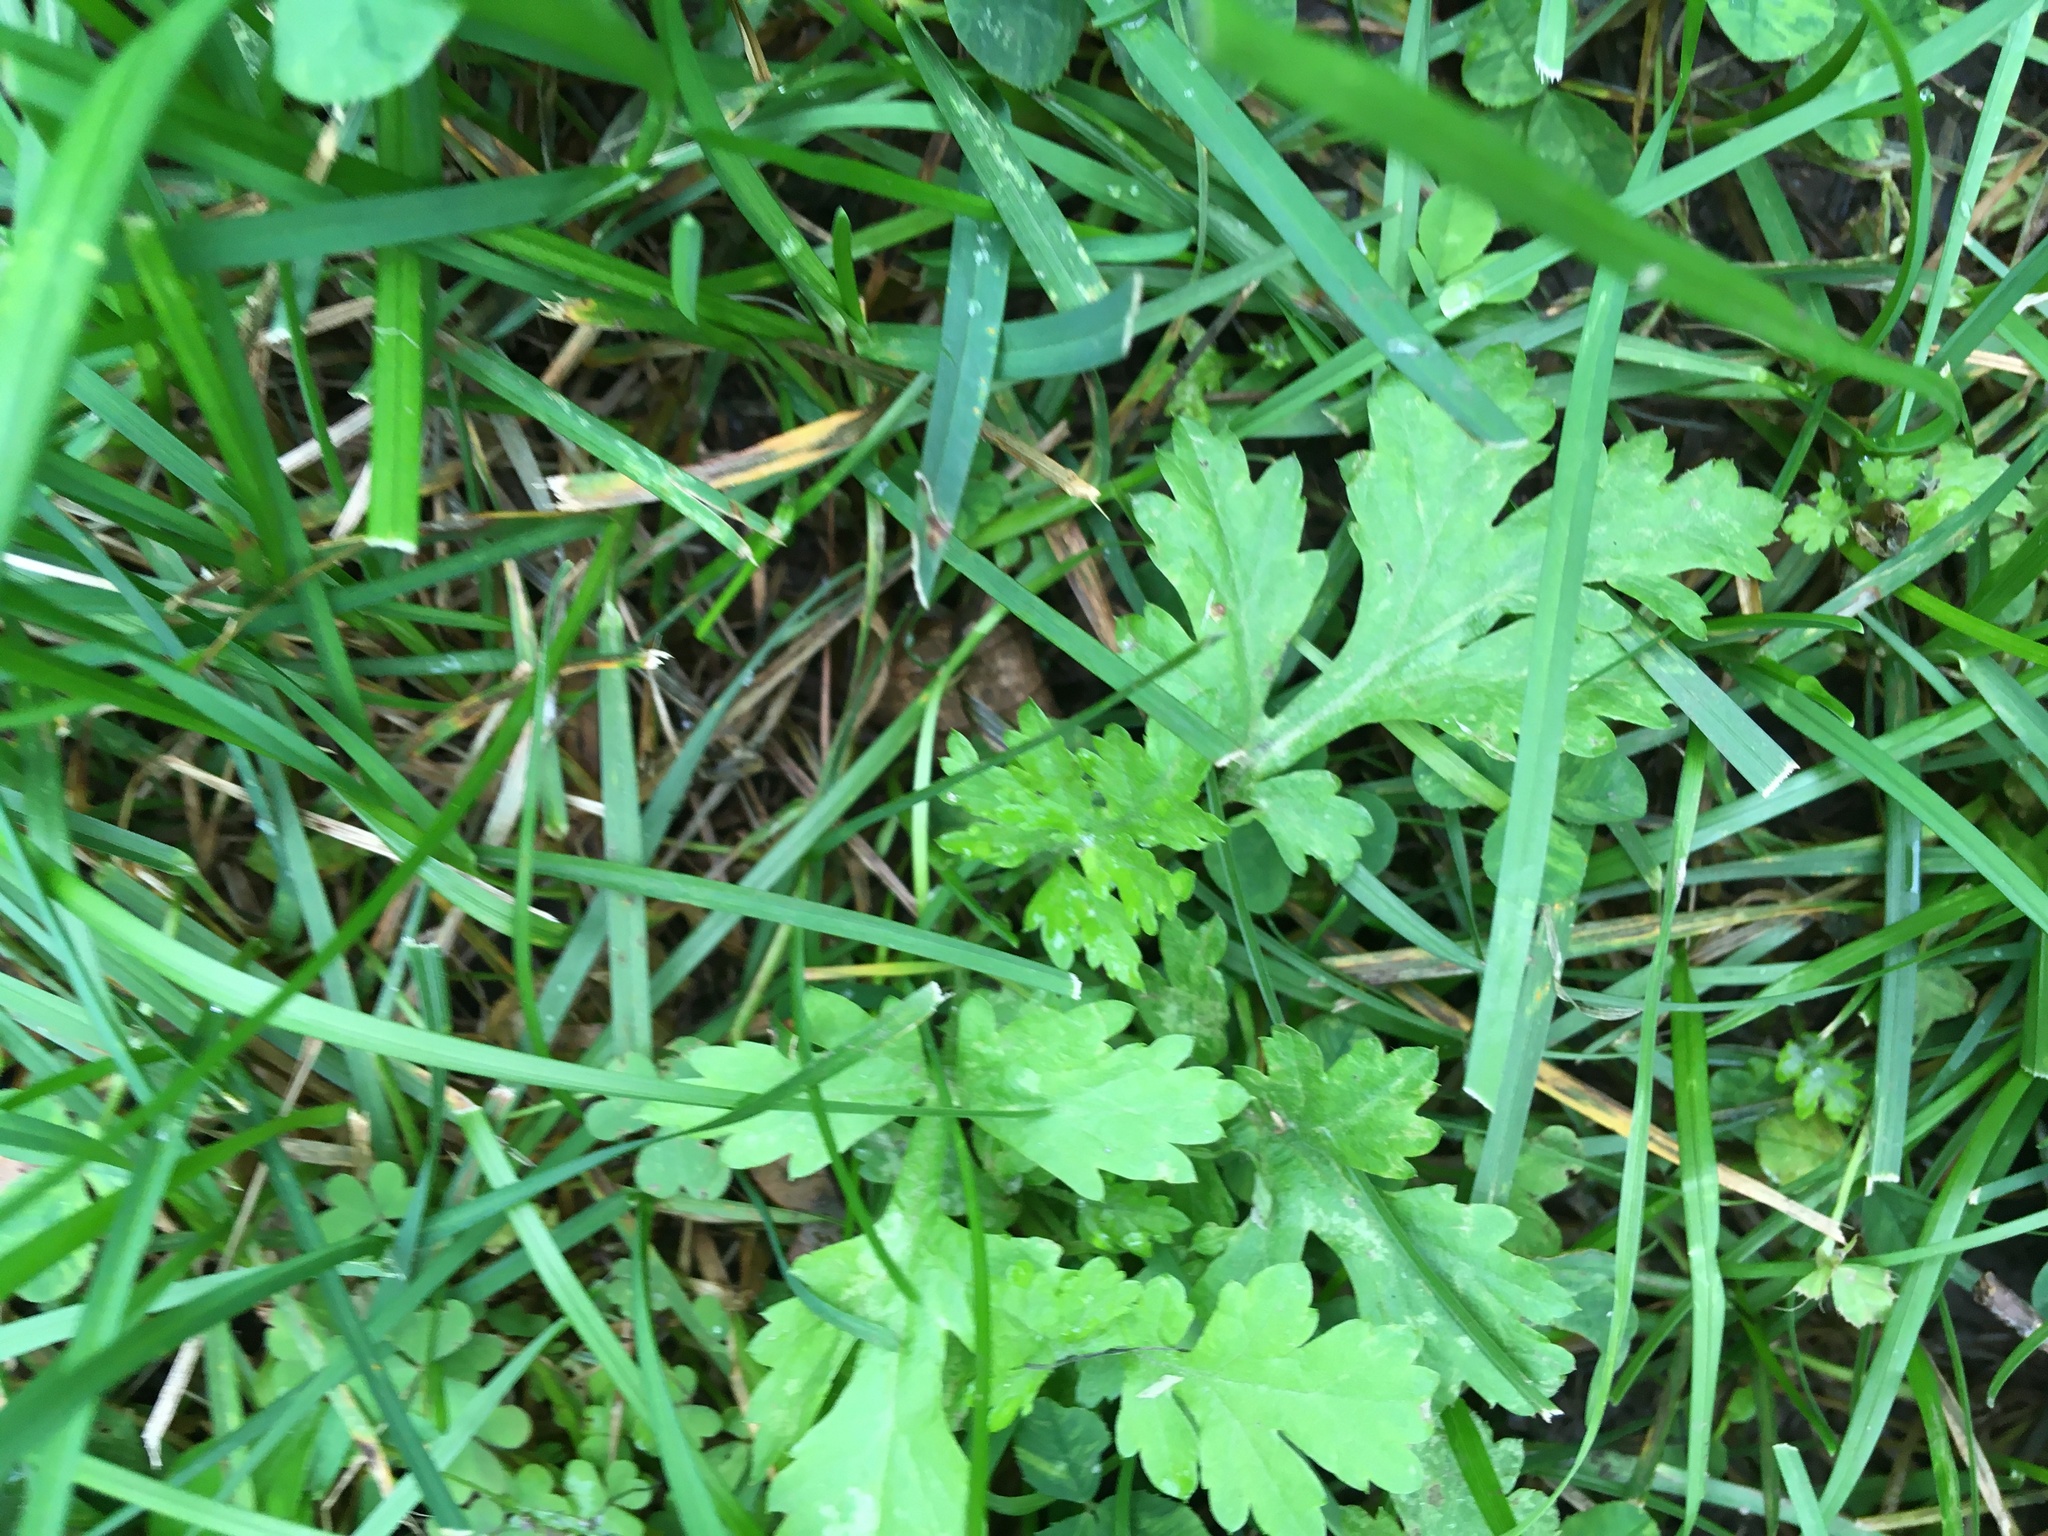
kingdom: Plantae
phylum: Tracheophyta
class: Magnoliopsida
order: Asterales
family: Asteraceae
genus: Artemisia
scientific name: Artemisia vulgaris
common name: Mugwort
